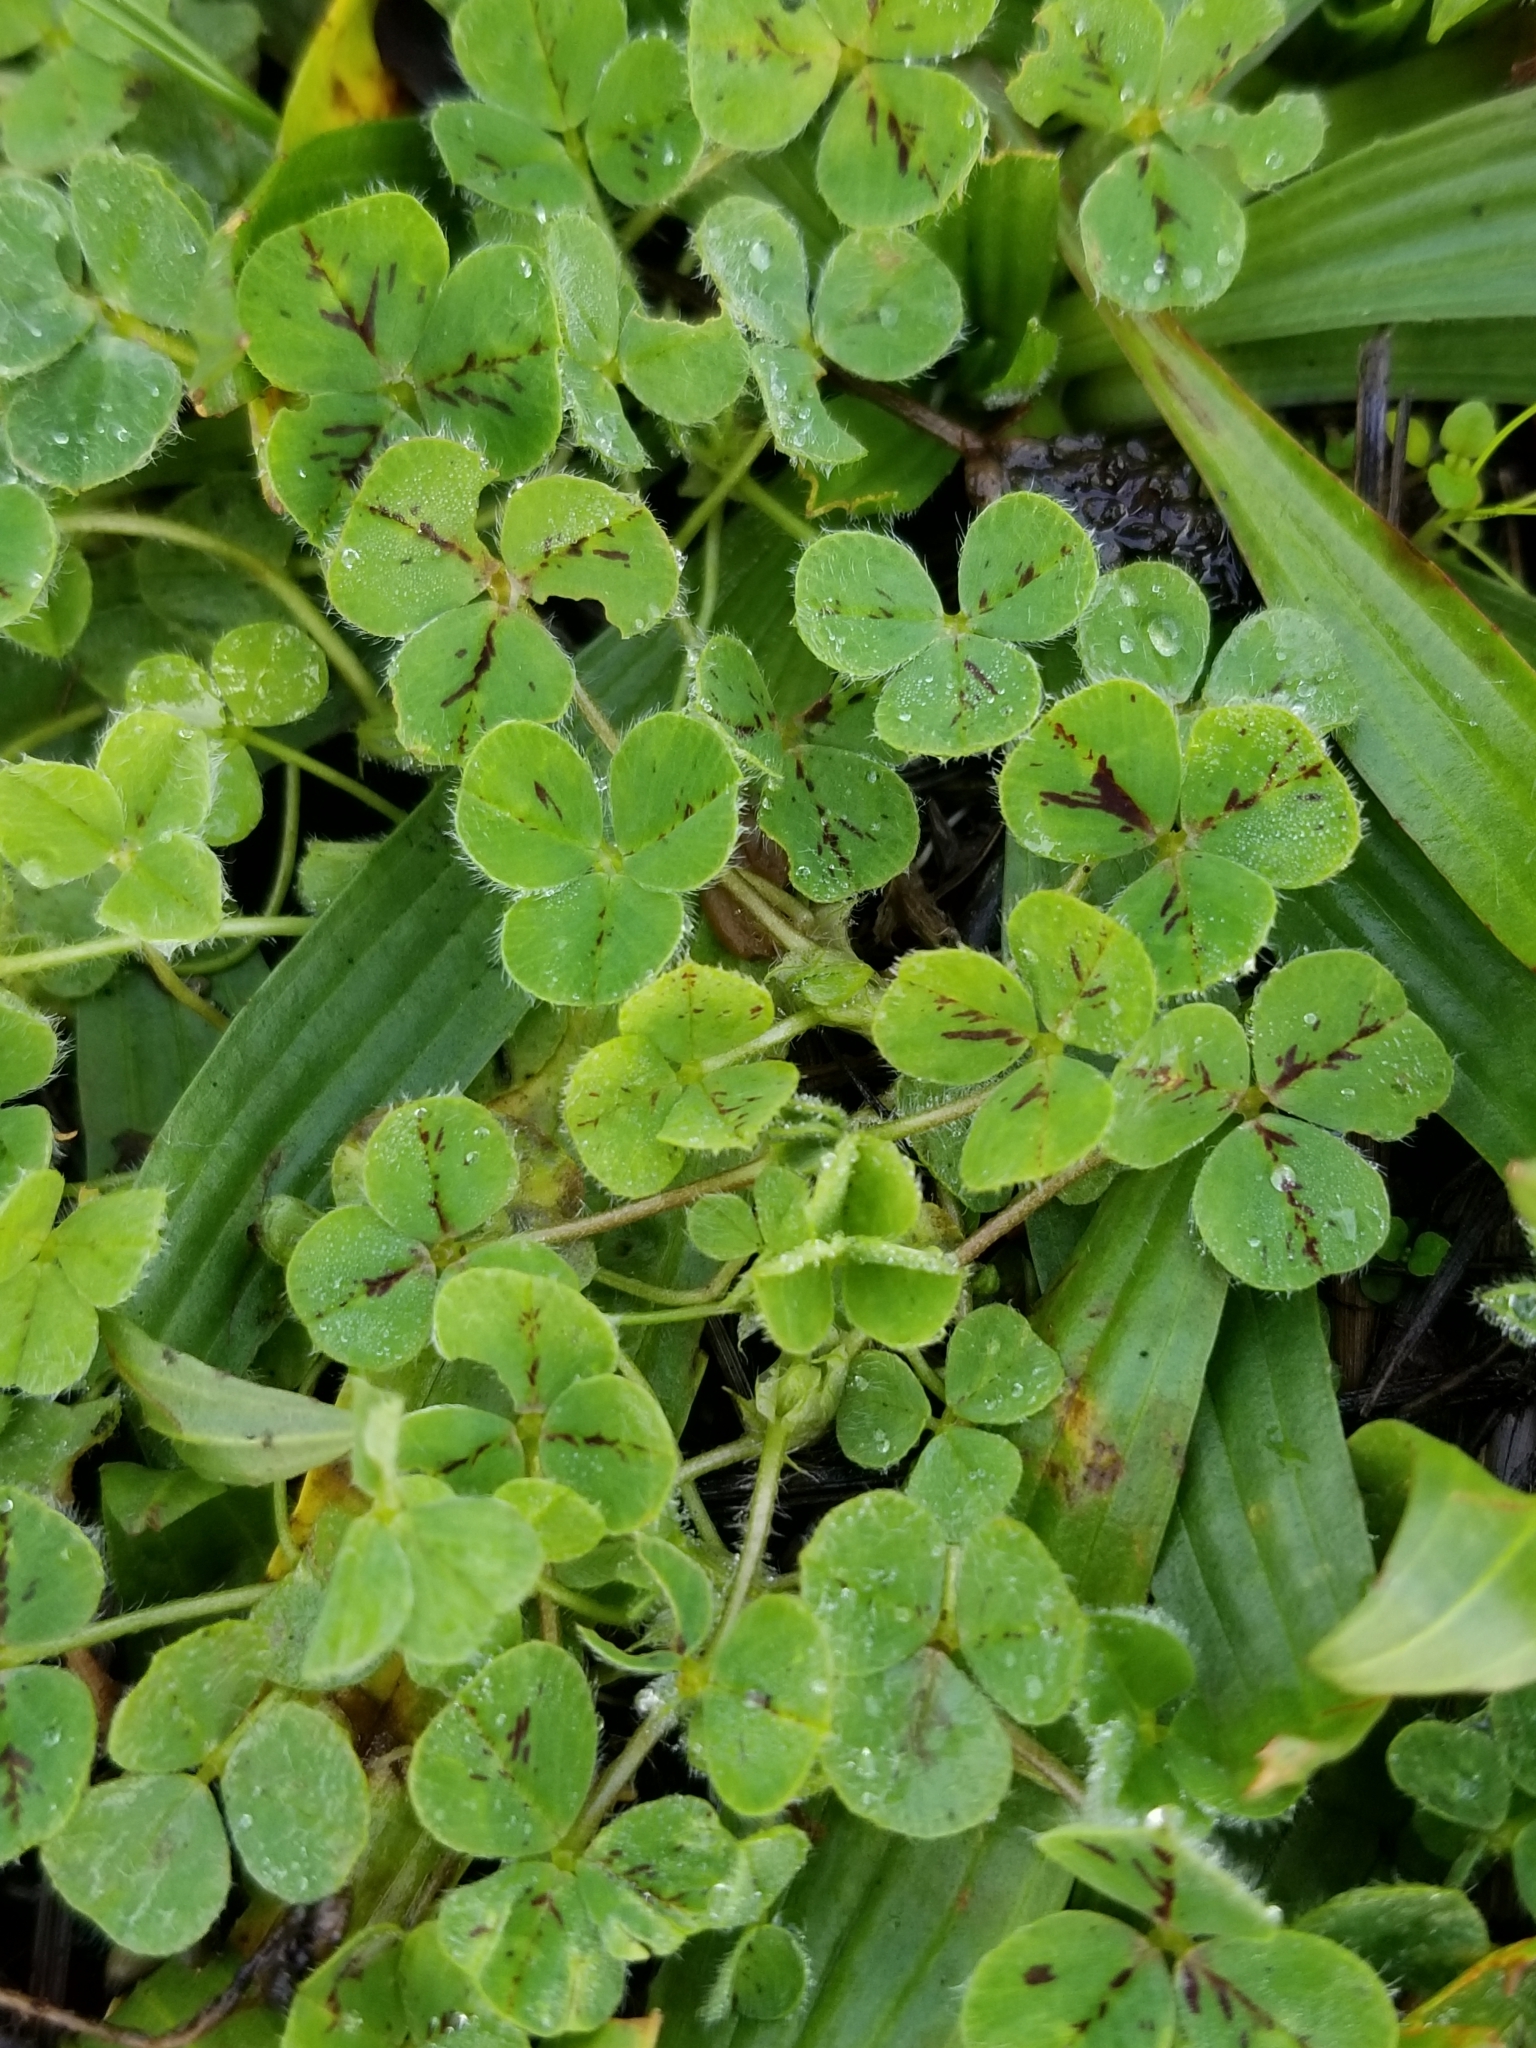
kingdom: Plantae
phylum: Tracheophyta
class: Magnoliopsida
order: Fabales
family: Fabaceae
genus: Trifolium
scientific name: Trifolium subterraneum
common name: Subterranean clover
